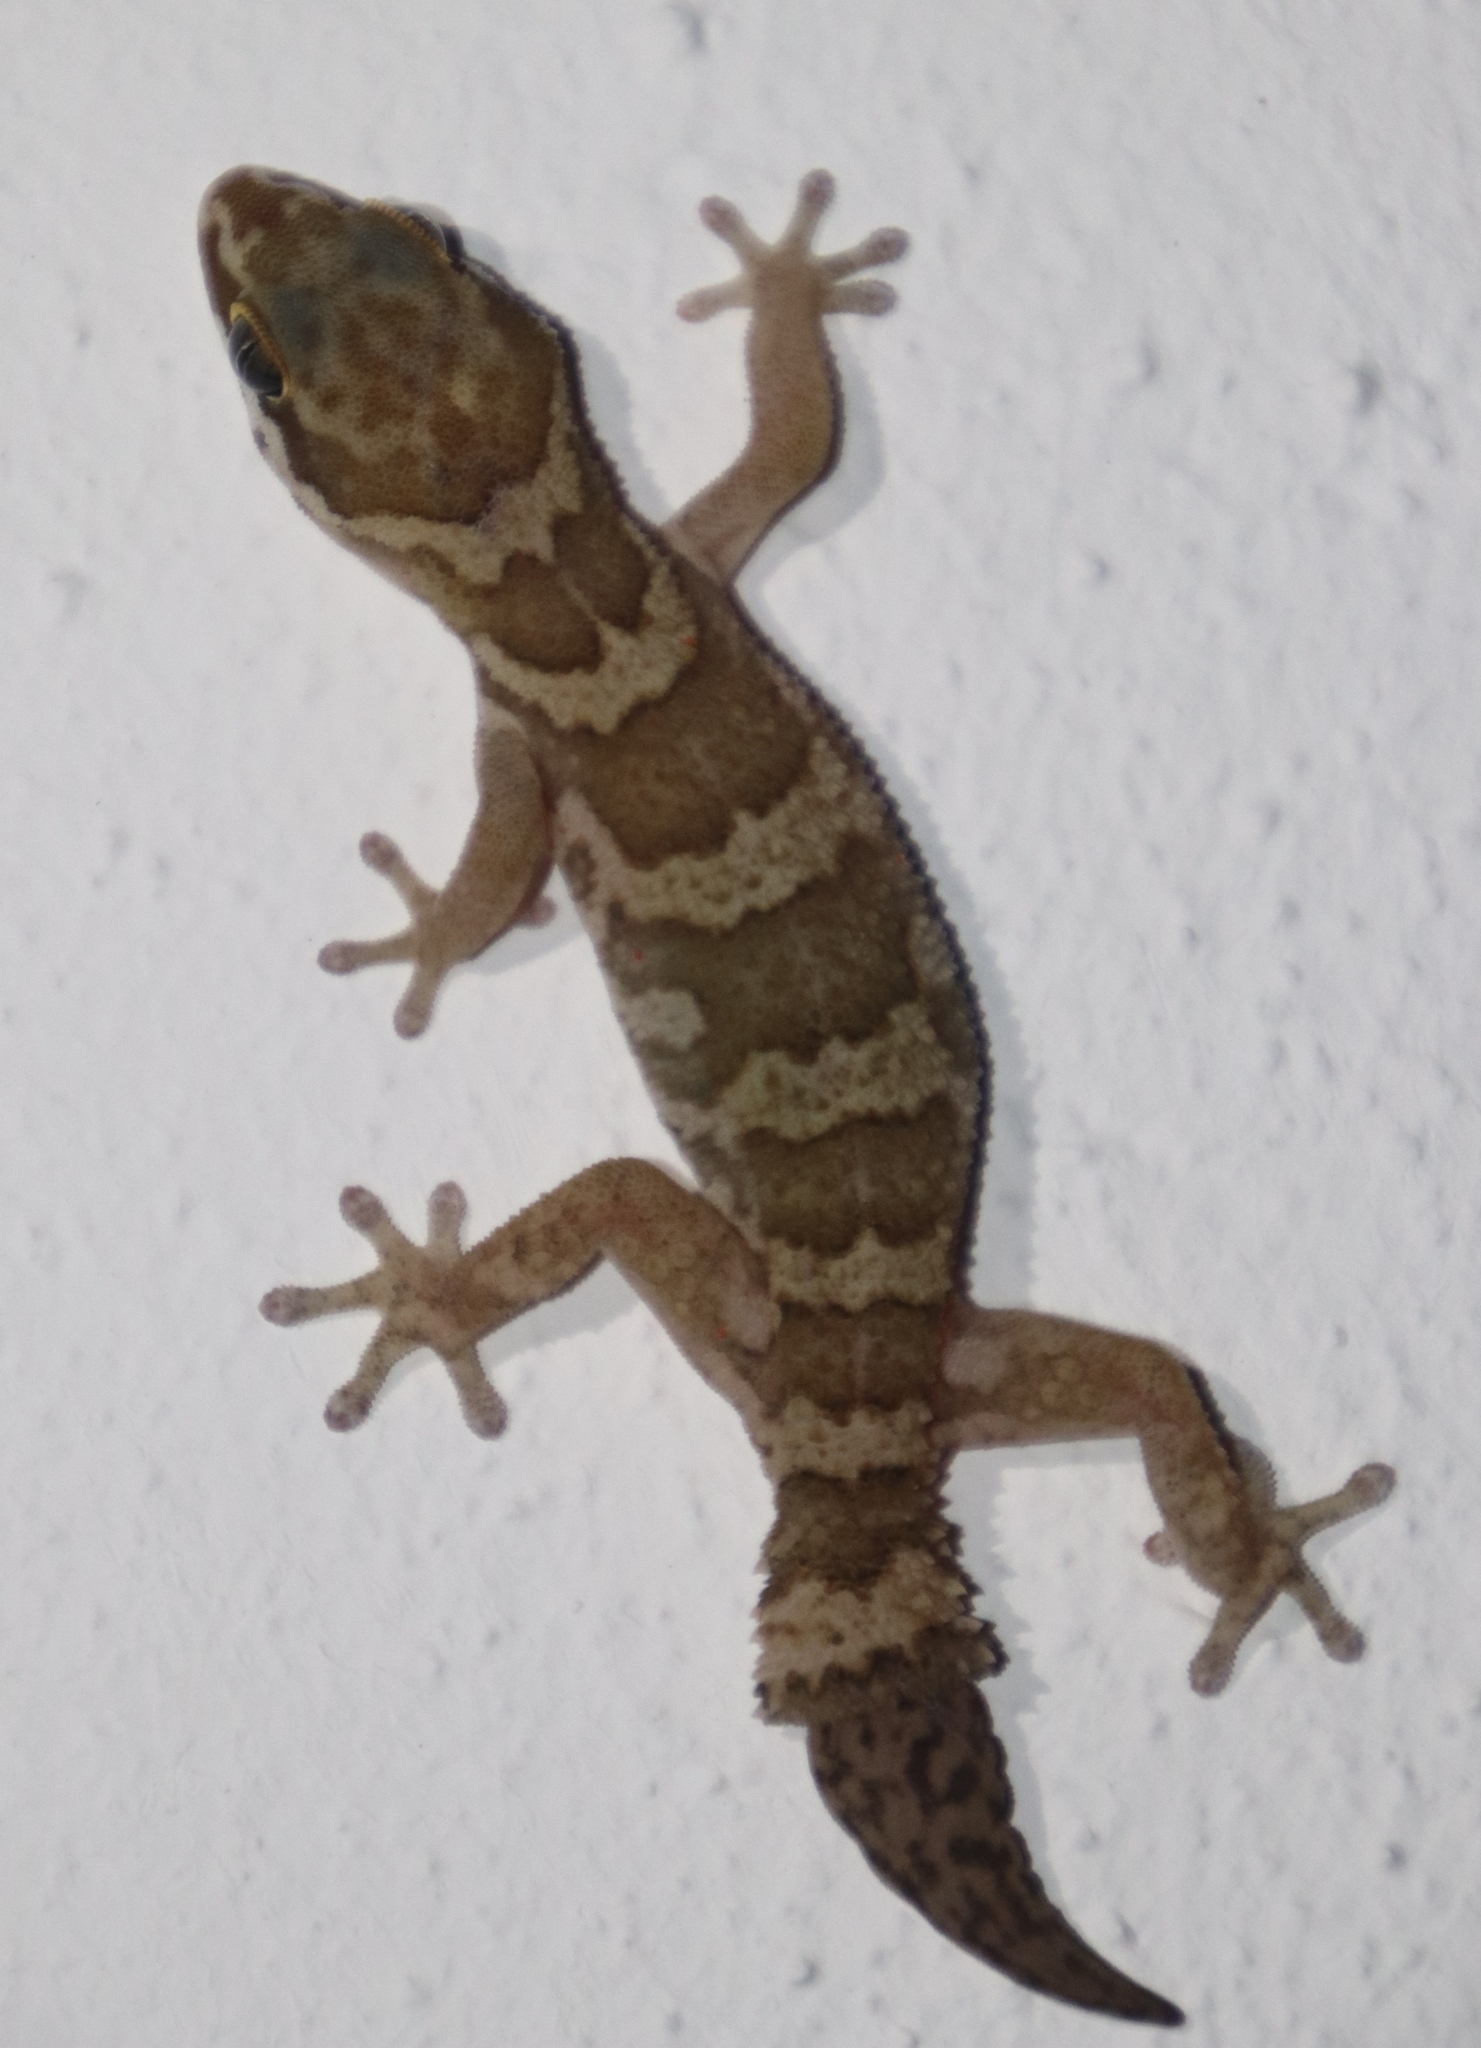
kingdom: Animalia
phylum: Chordata
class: Squamata
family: Gekkonidae
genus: Pachydactylus
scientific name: Pachydactylus formosus
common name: Southern rough gecko
